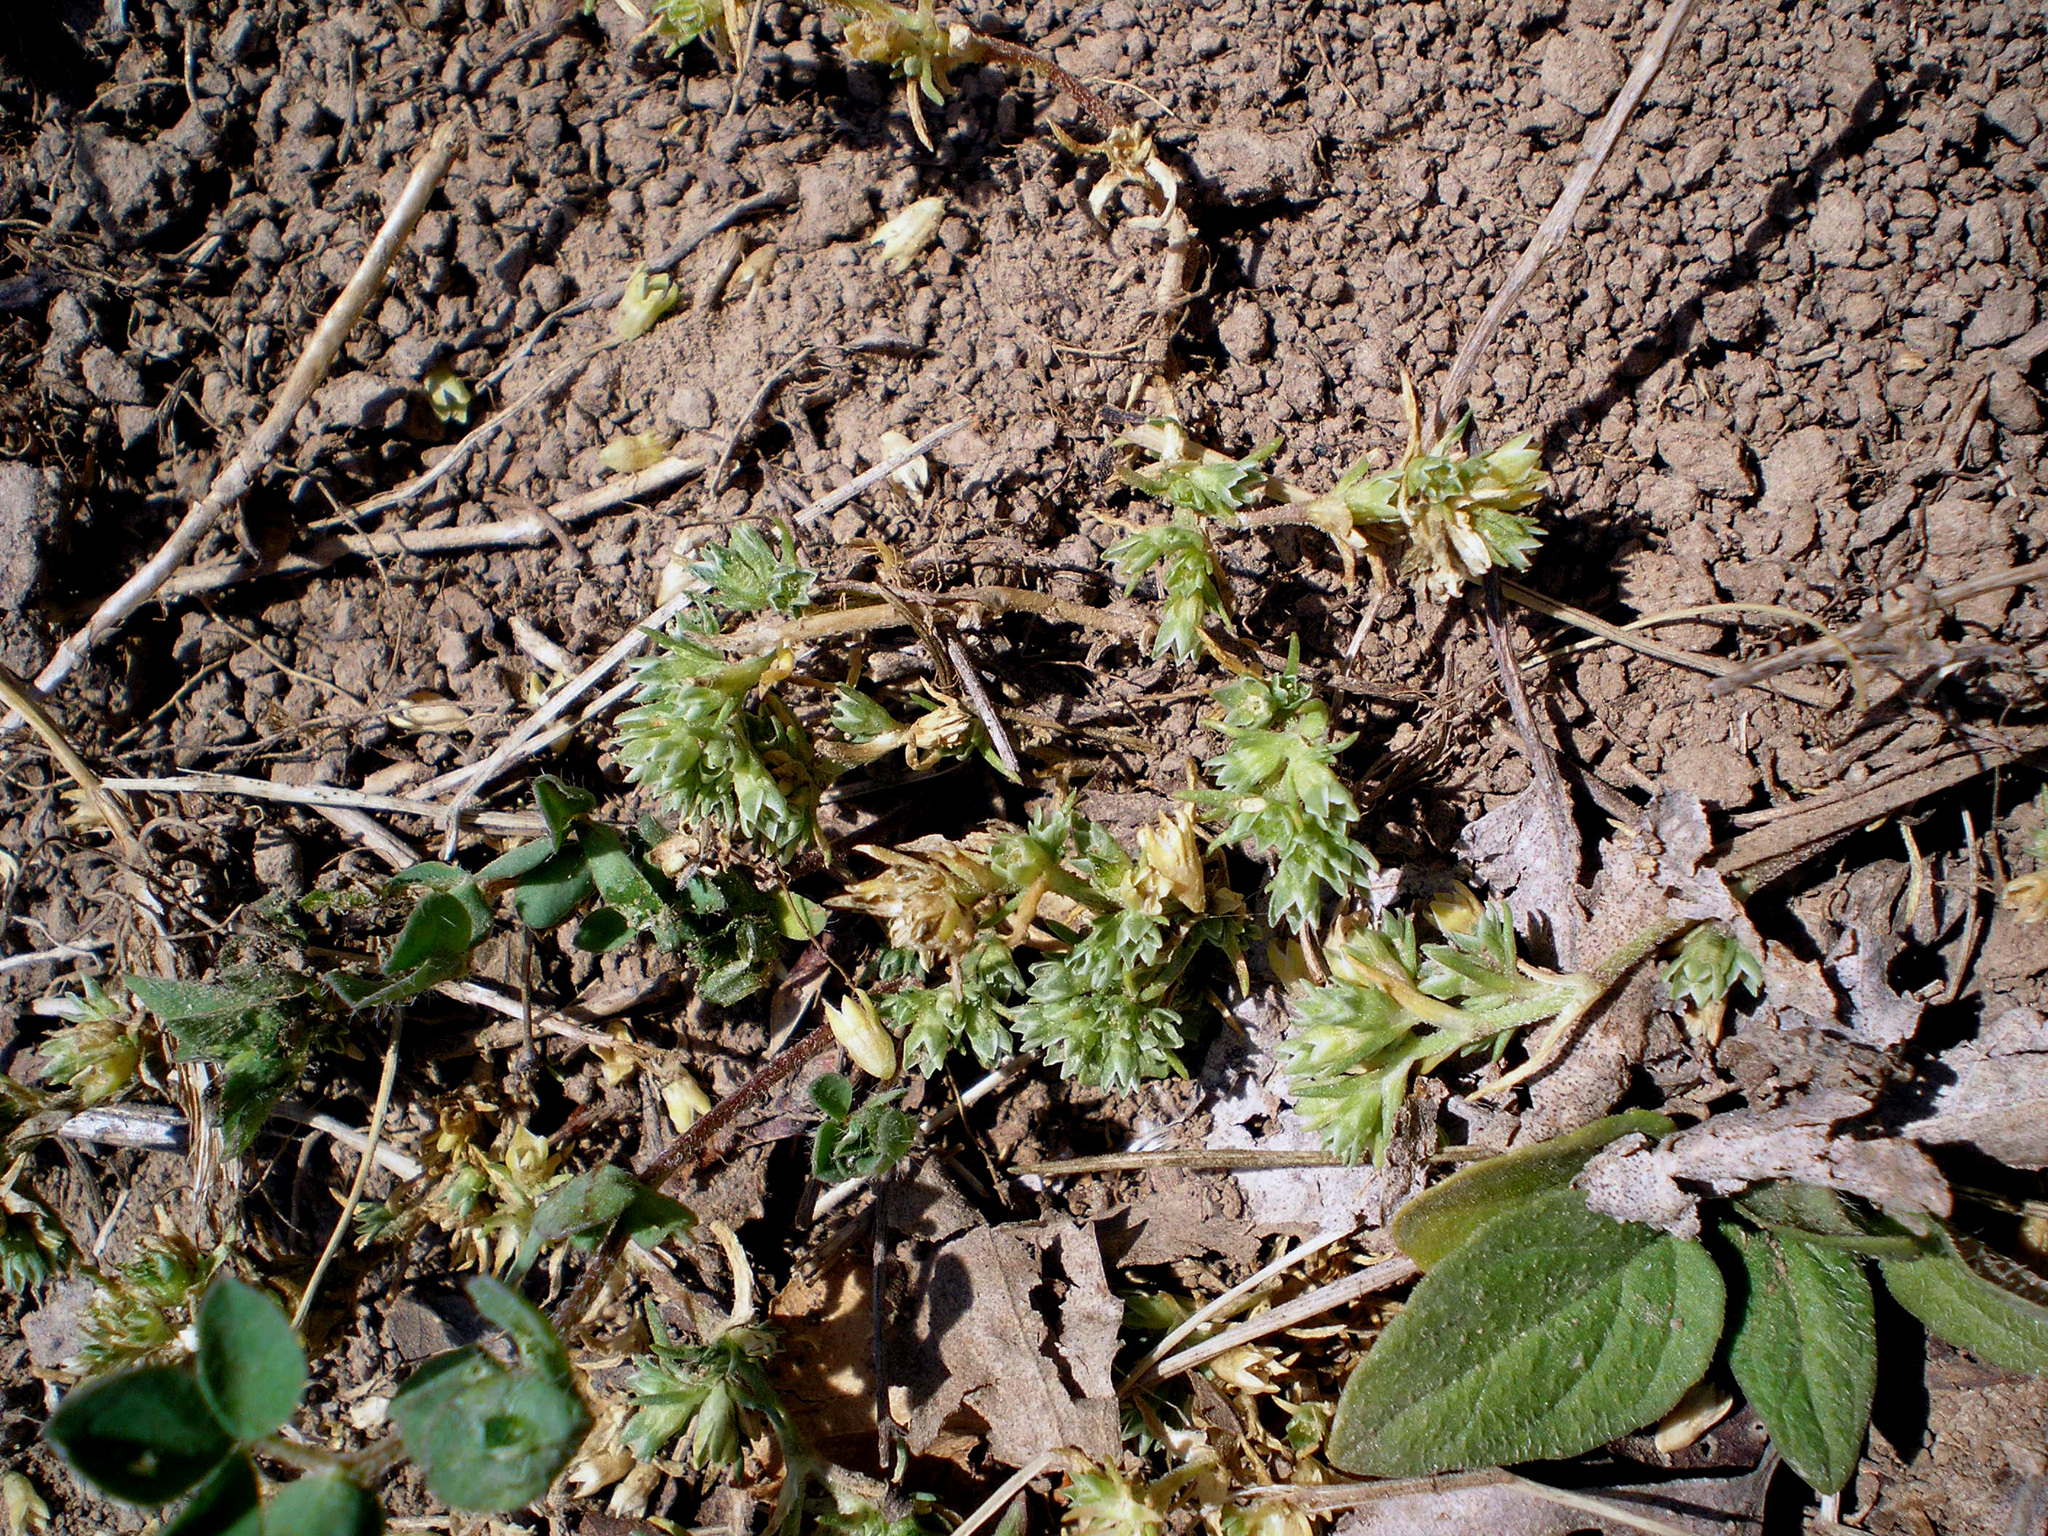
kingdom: Plantae
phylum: Tracheophyta
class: Magnoliopsida
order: Caryophyllales
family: Caryophyllaceae
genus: Scleranthus
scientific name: Scleranthus annuus
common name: Annual knawel
